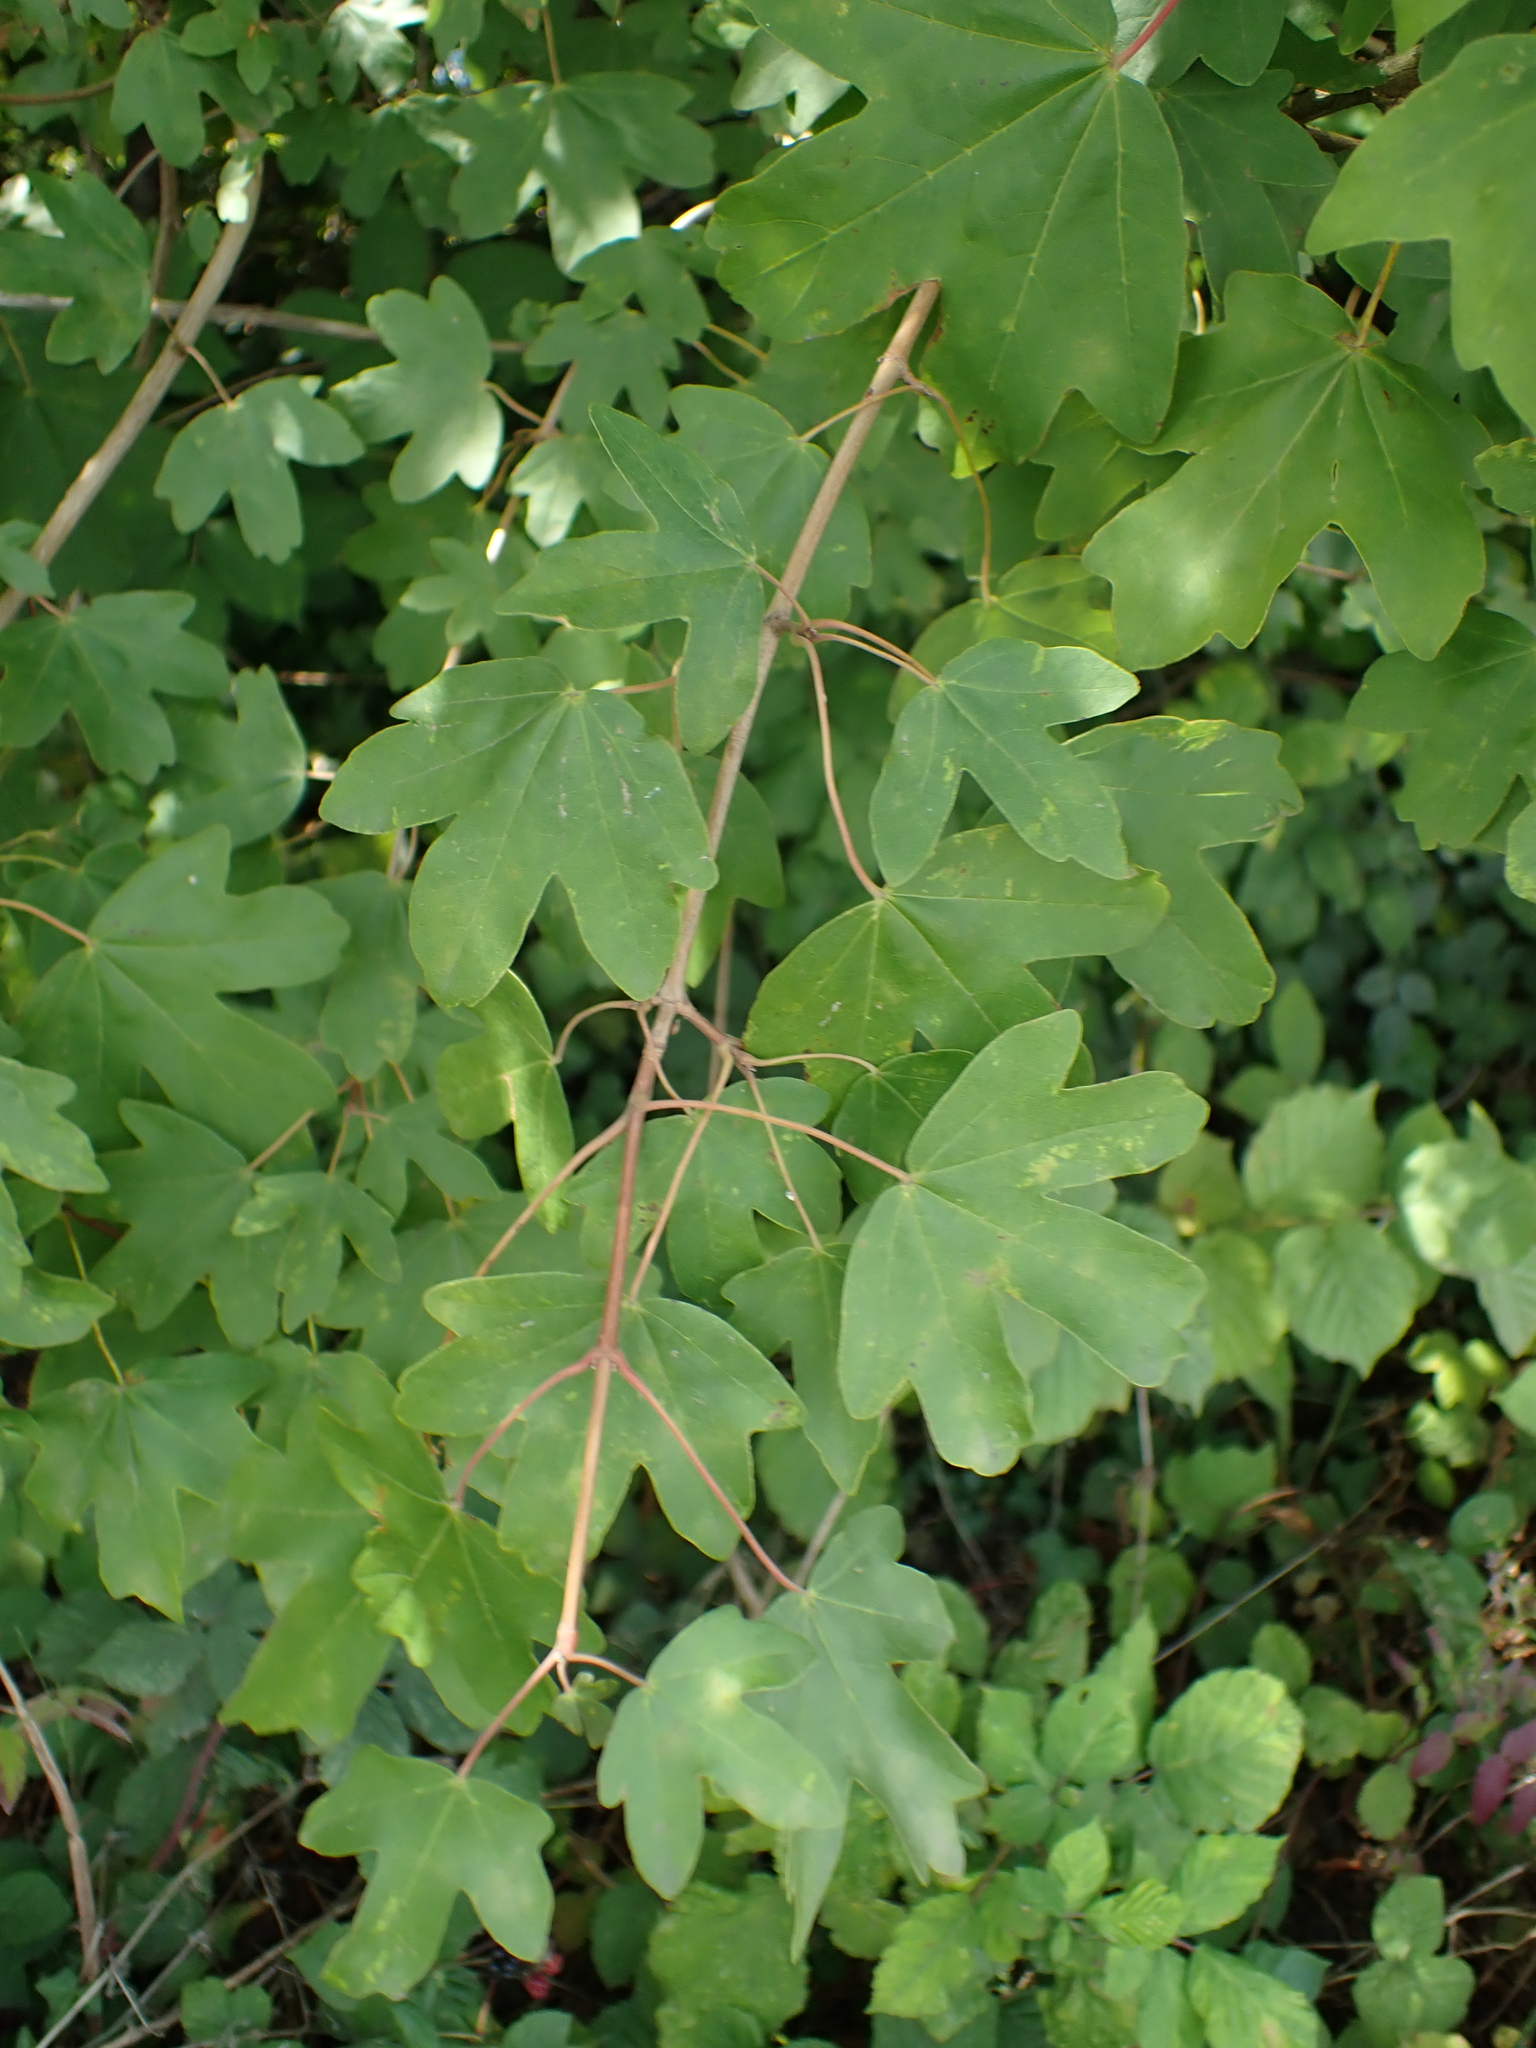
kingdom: Plantae
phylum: Tracheophyta
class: Magnoliopsida
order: Sapindales
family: Sapindaceae
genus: Acer
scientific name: Acer campestre
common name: Field maple
